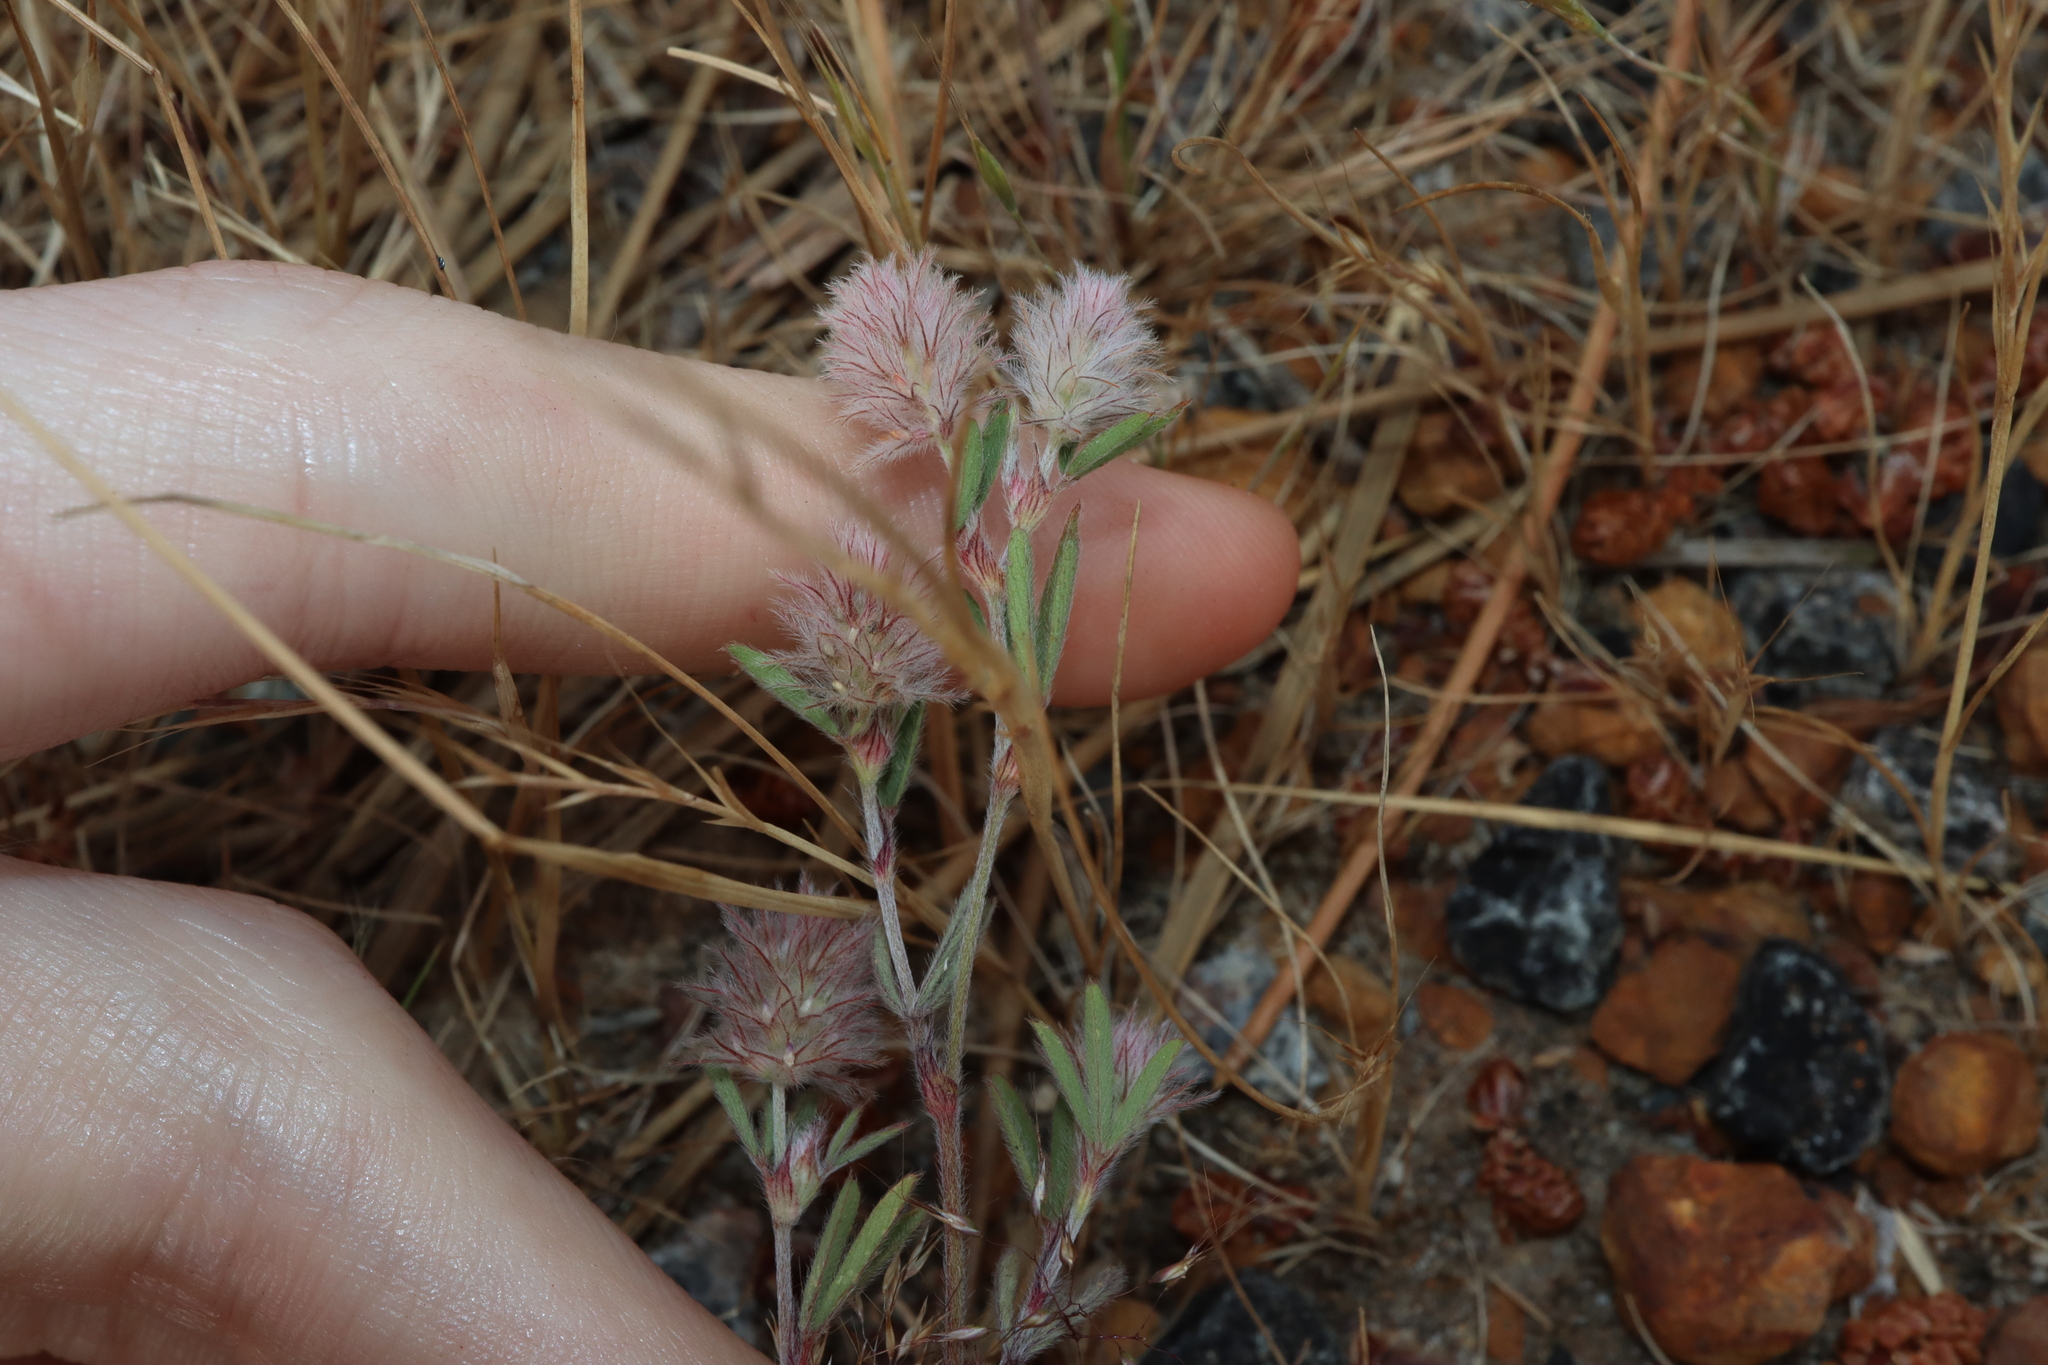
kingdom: Plantae
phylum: Tracheophyta
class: Magnoliopsida
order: Fabales
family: Fabaceae
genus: Trifolium
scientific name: Trifolium arvense
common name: Hare's-foot clover
